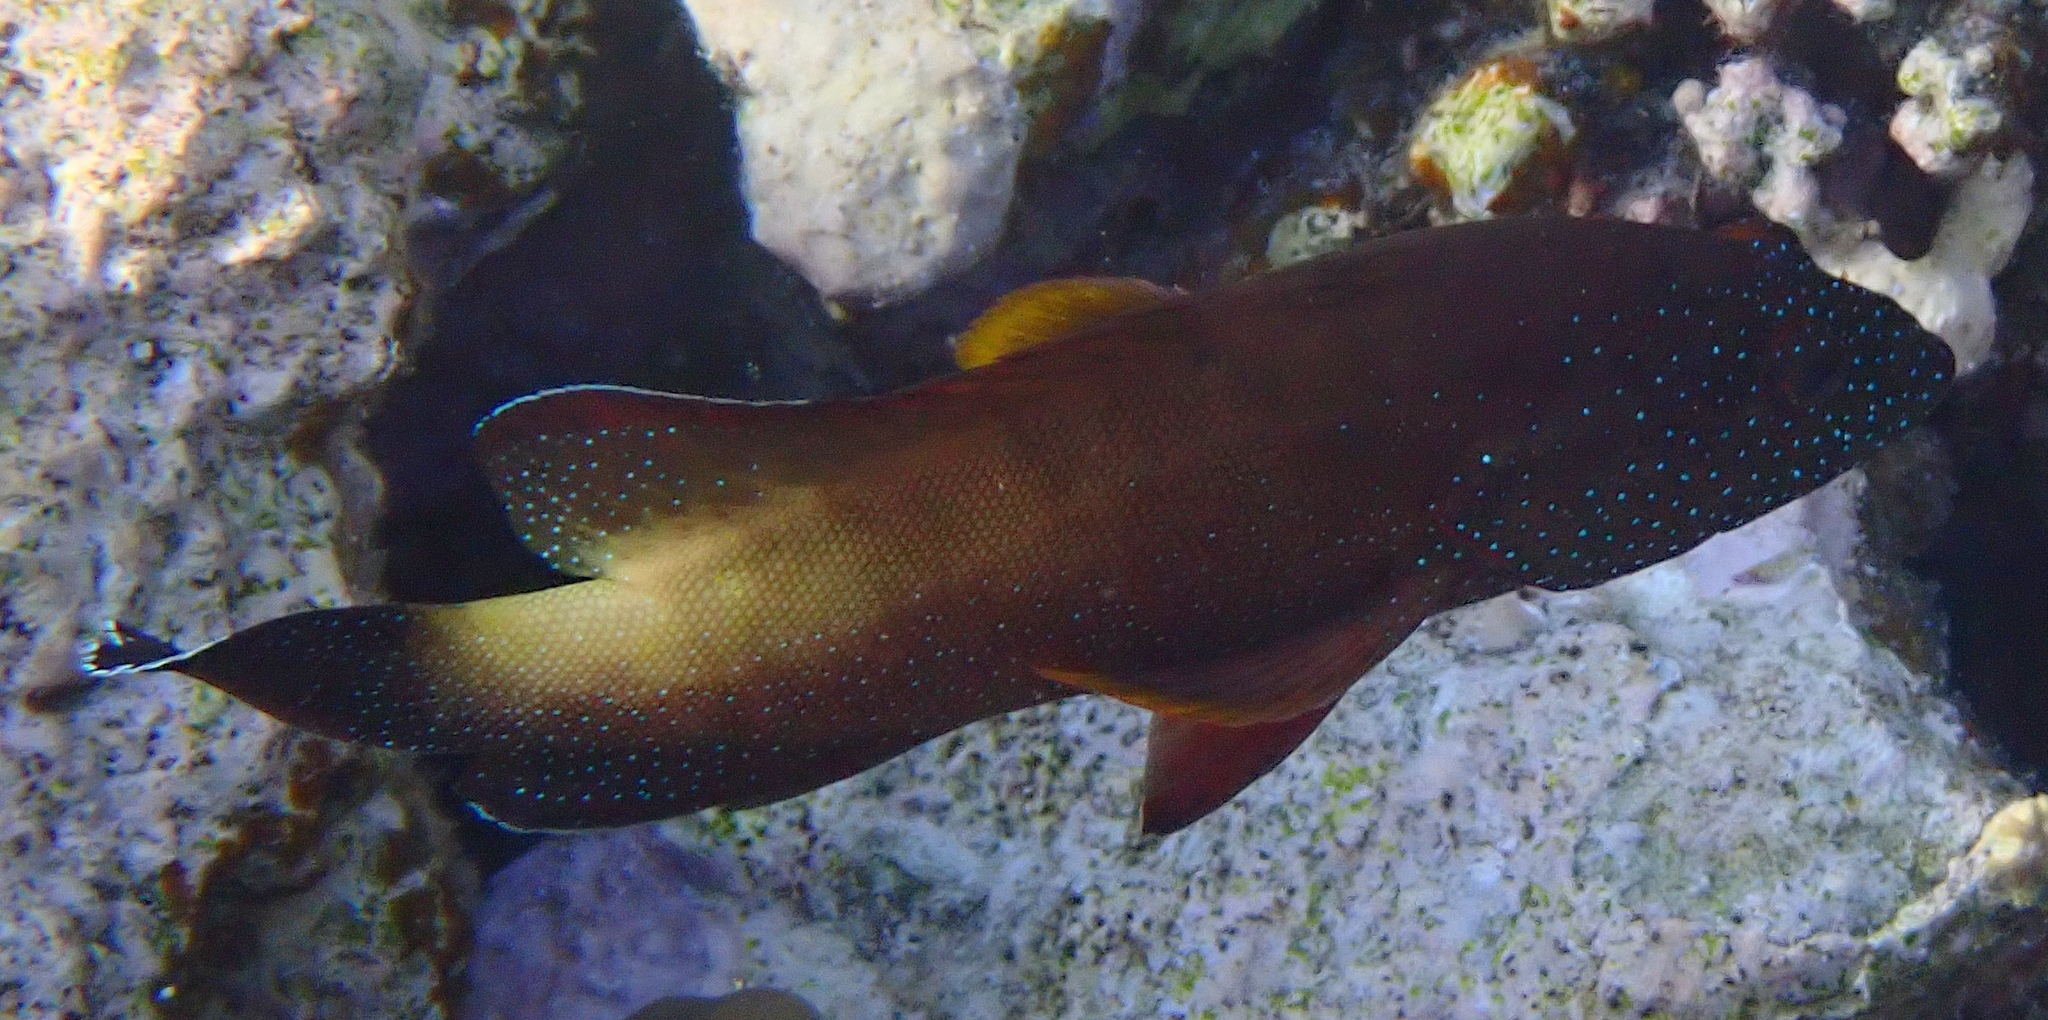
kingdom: Animalia
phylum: Chordata
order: Perciformes
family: Serranidae
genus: Cephalopholis
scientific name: Cephalopholis hemistiktos
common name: Halfspotted hind
